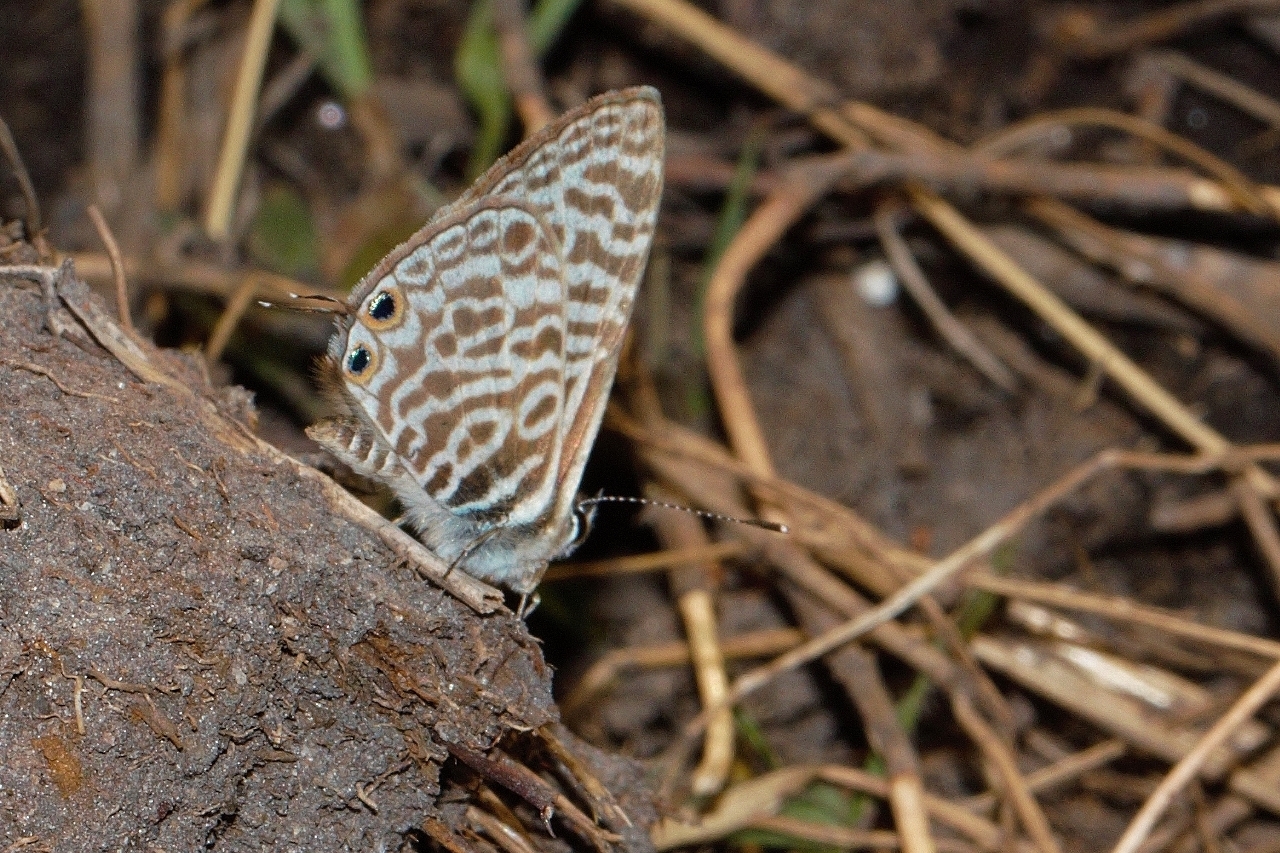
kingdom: Animalia
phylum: Arthropoda
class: Insecta
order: Lepidoptera
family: Lycaenidae
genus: Leptotes
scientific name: Leptotes
